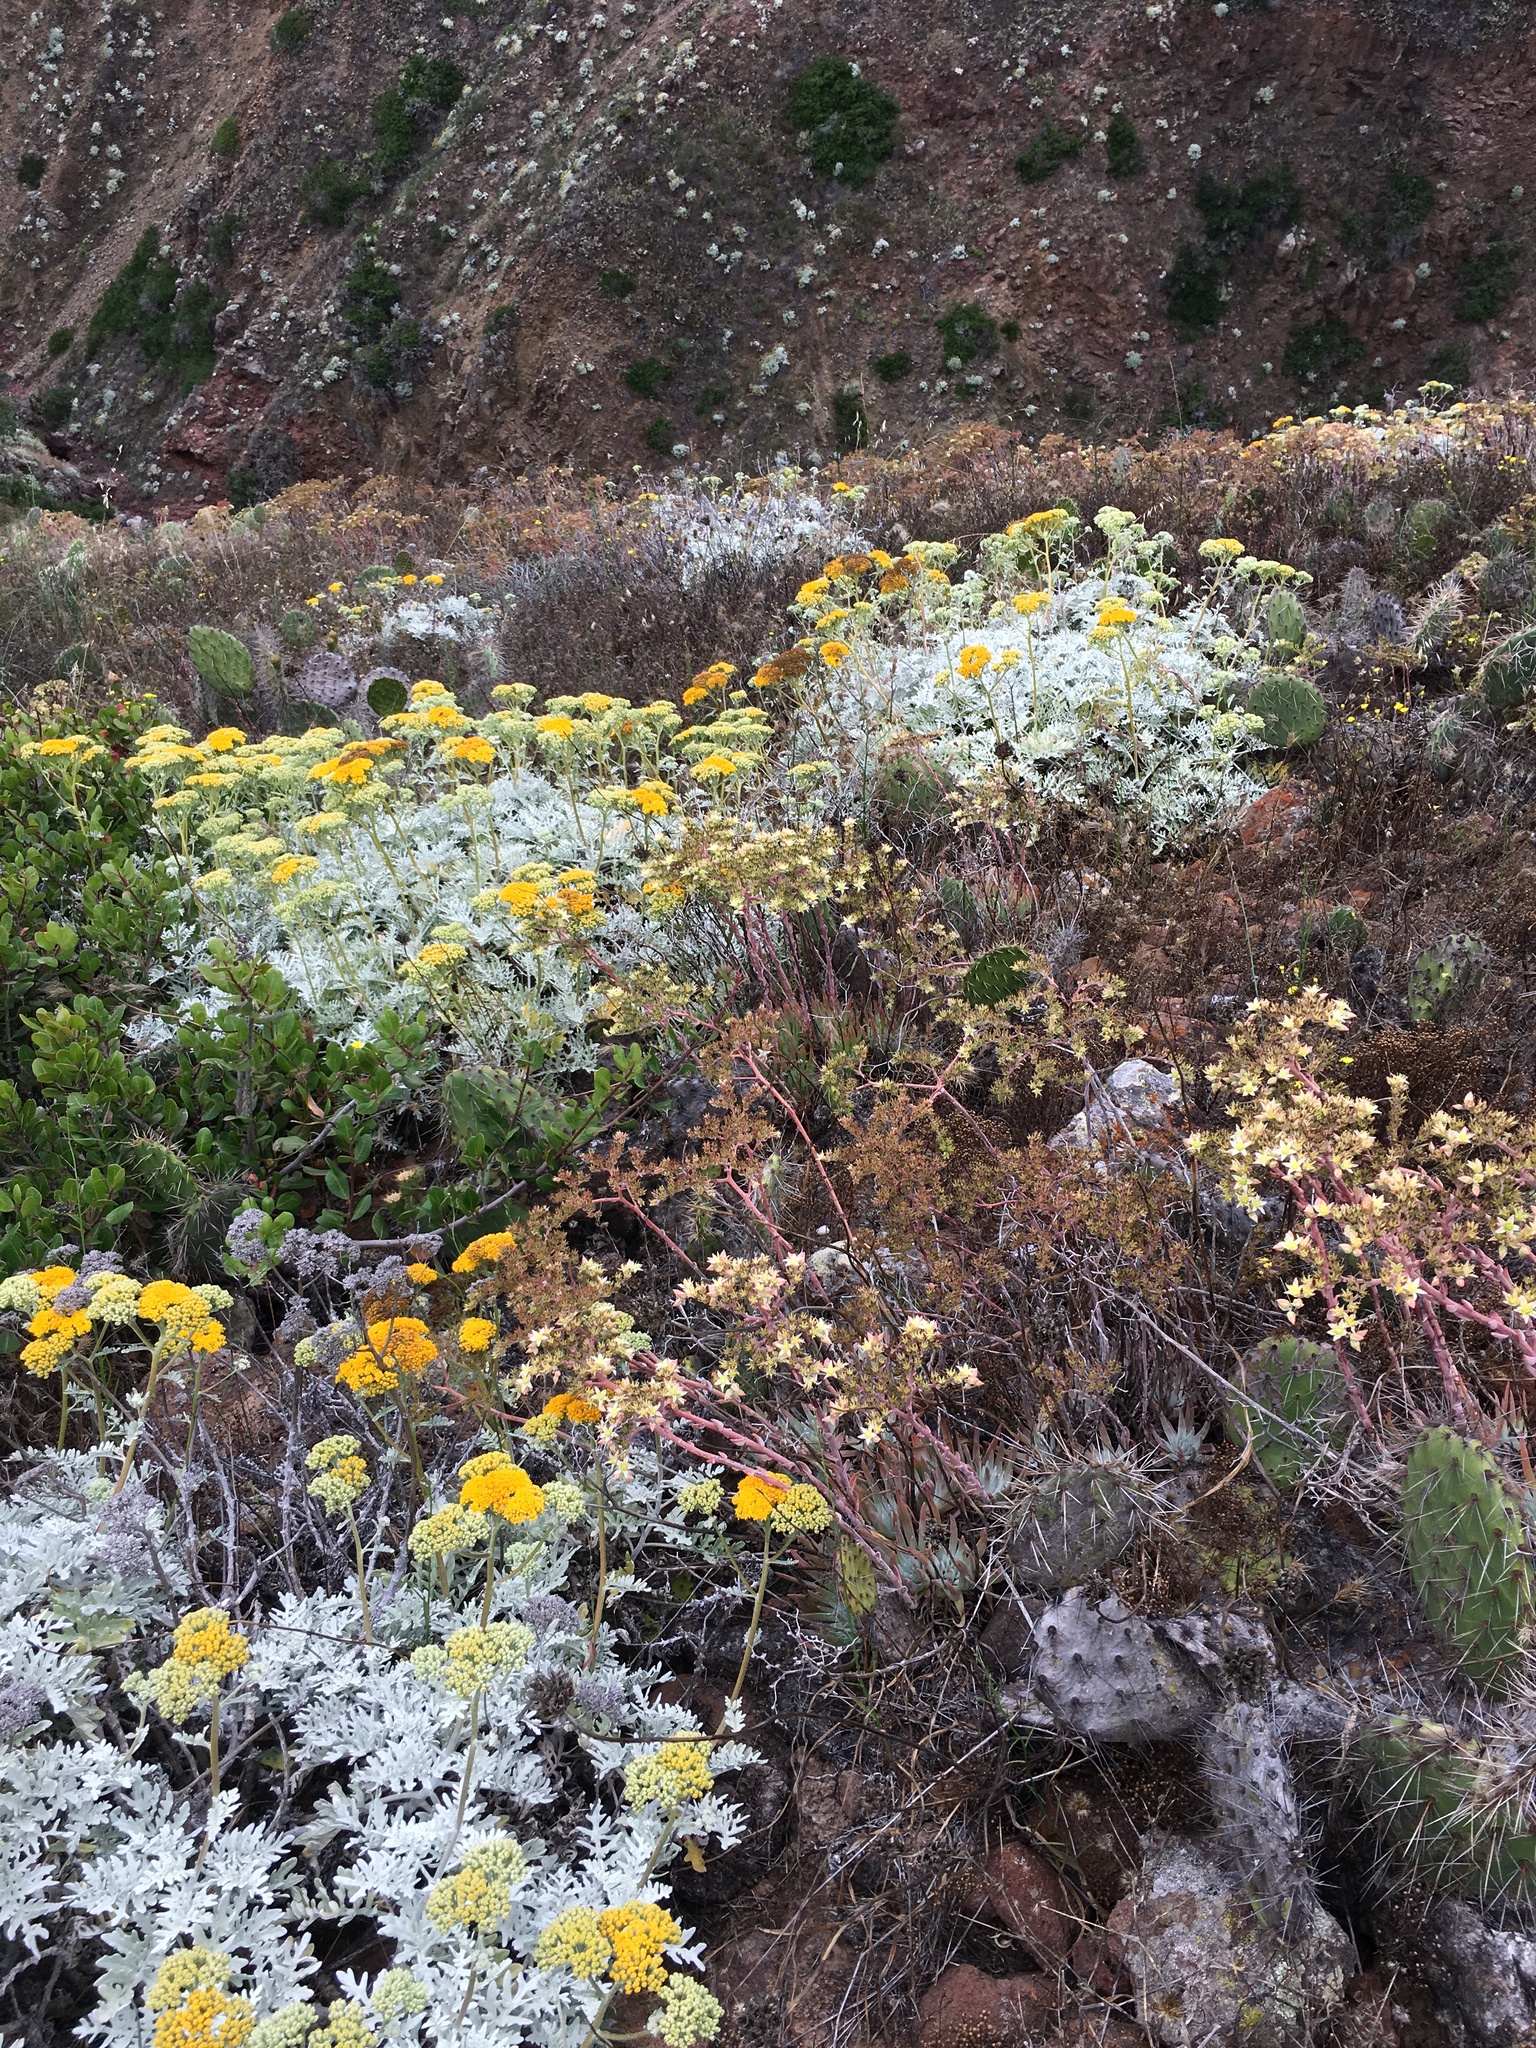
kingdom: Plantae
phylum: Tracheophyta
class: Magnoliopsida
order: Asterales
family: Asteraceae
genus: Constancea
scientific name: Constancea nevinii
